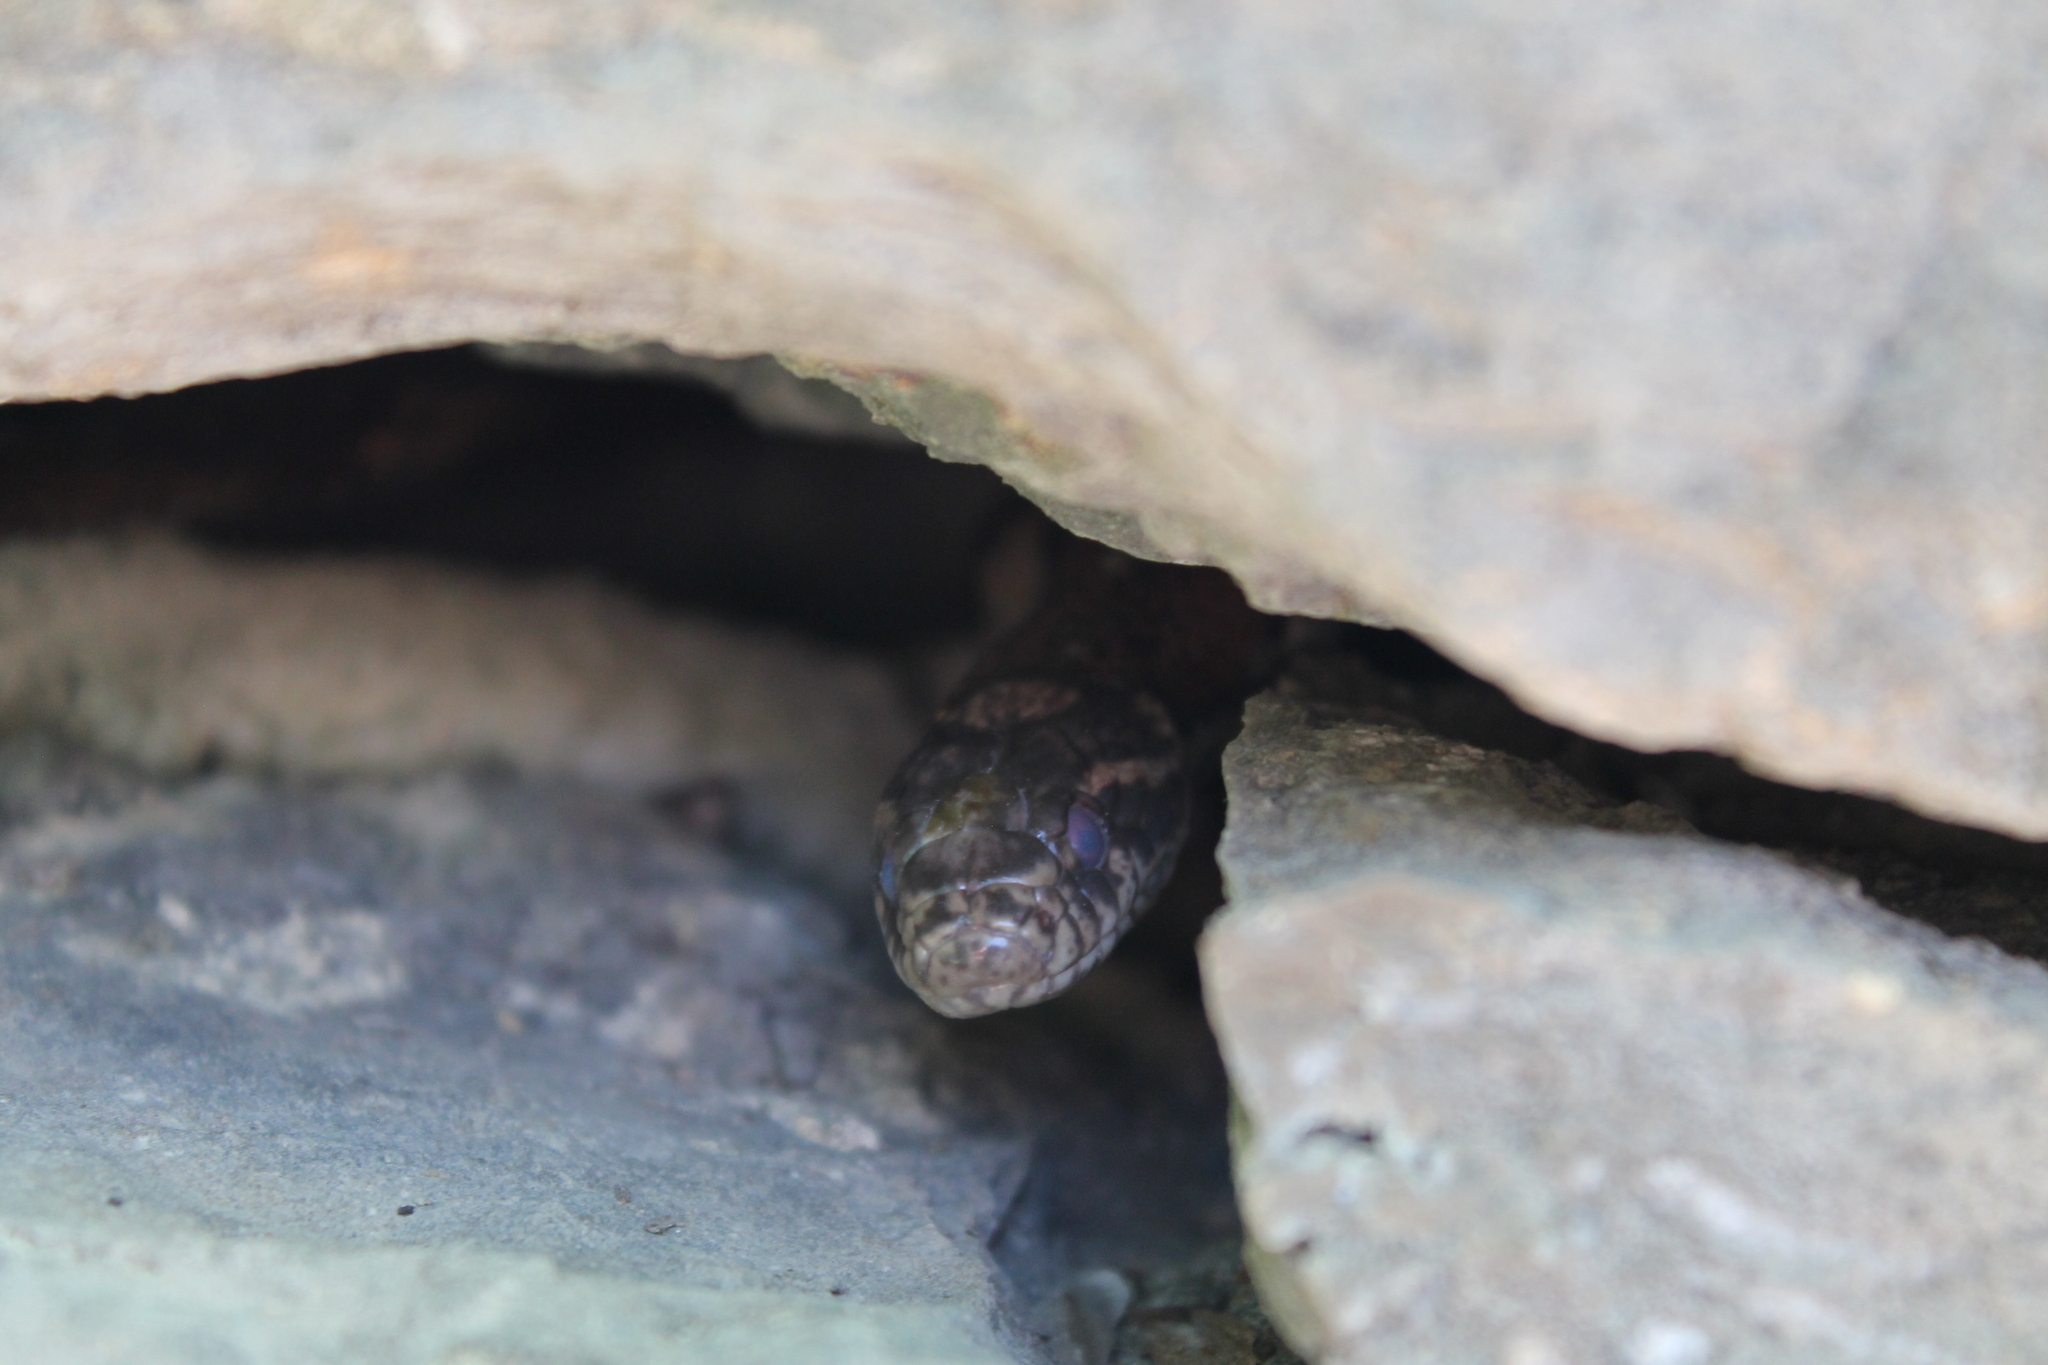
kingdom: Animalia
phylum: Chordata
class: Squamata
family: Colubridae
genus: Lampropeltis
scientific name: Lampropeltis triangulum
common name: Eastern milksnake
